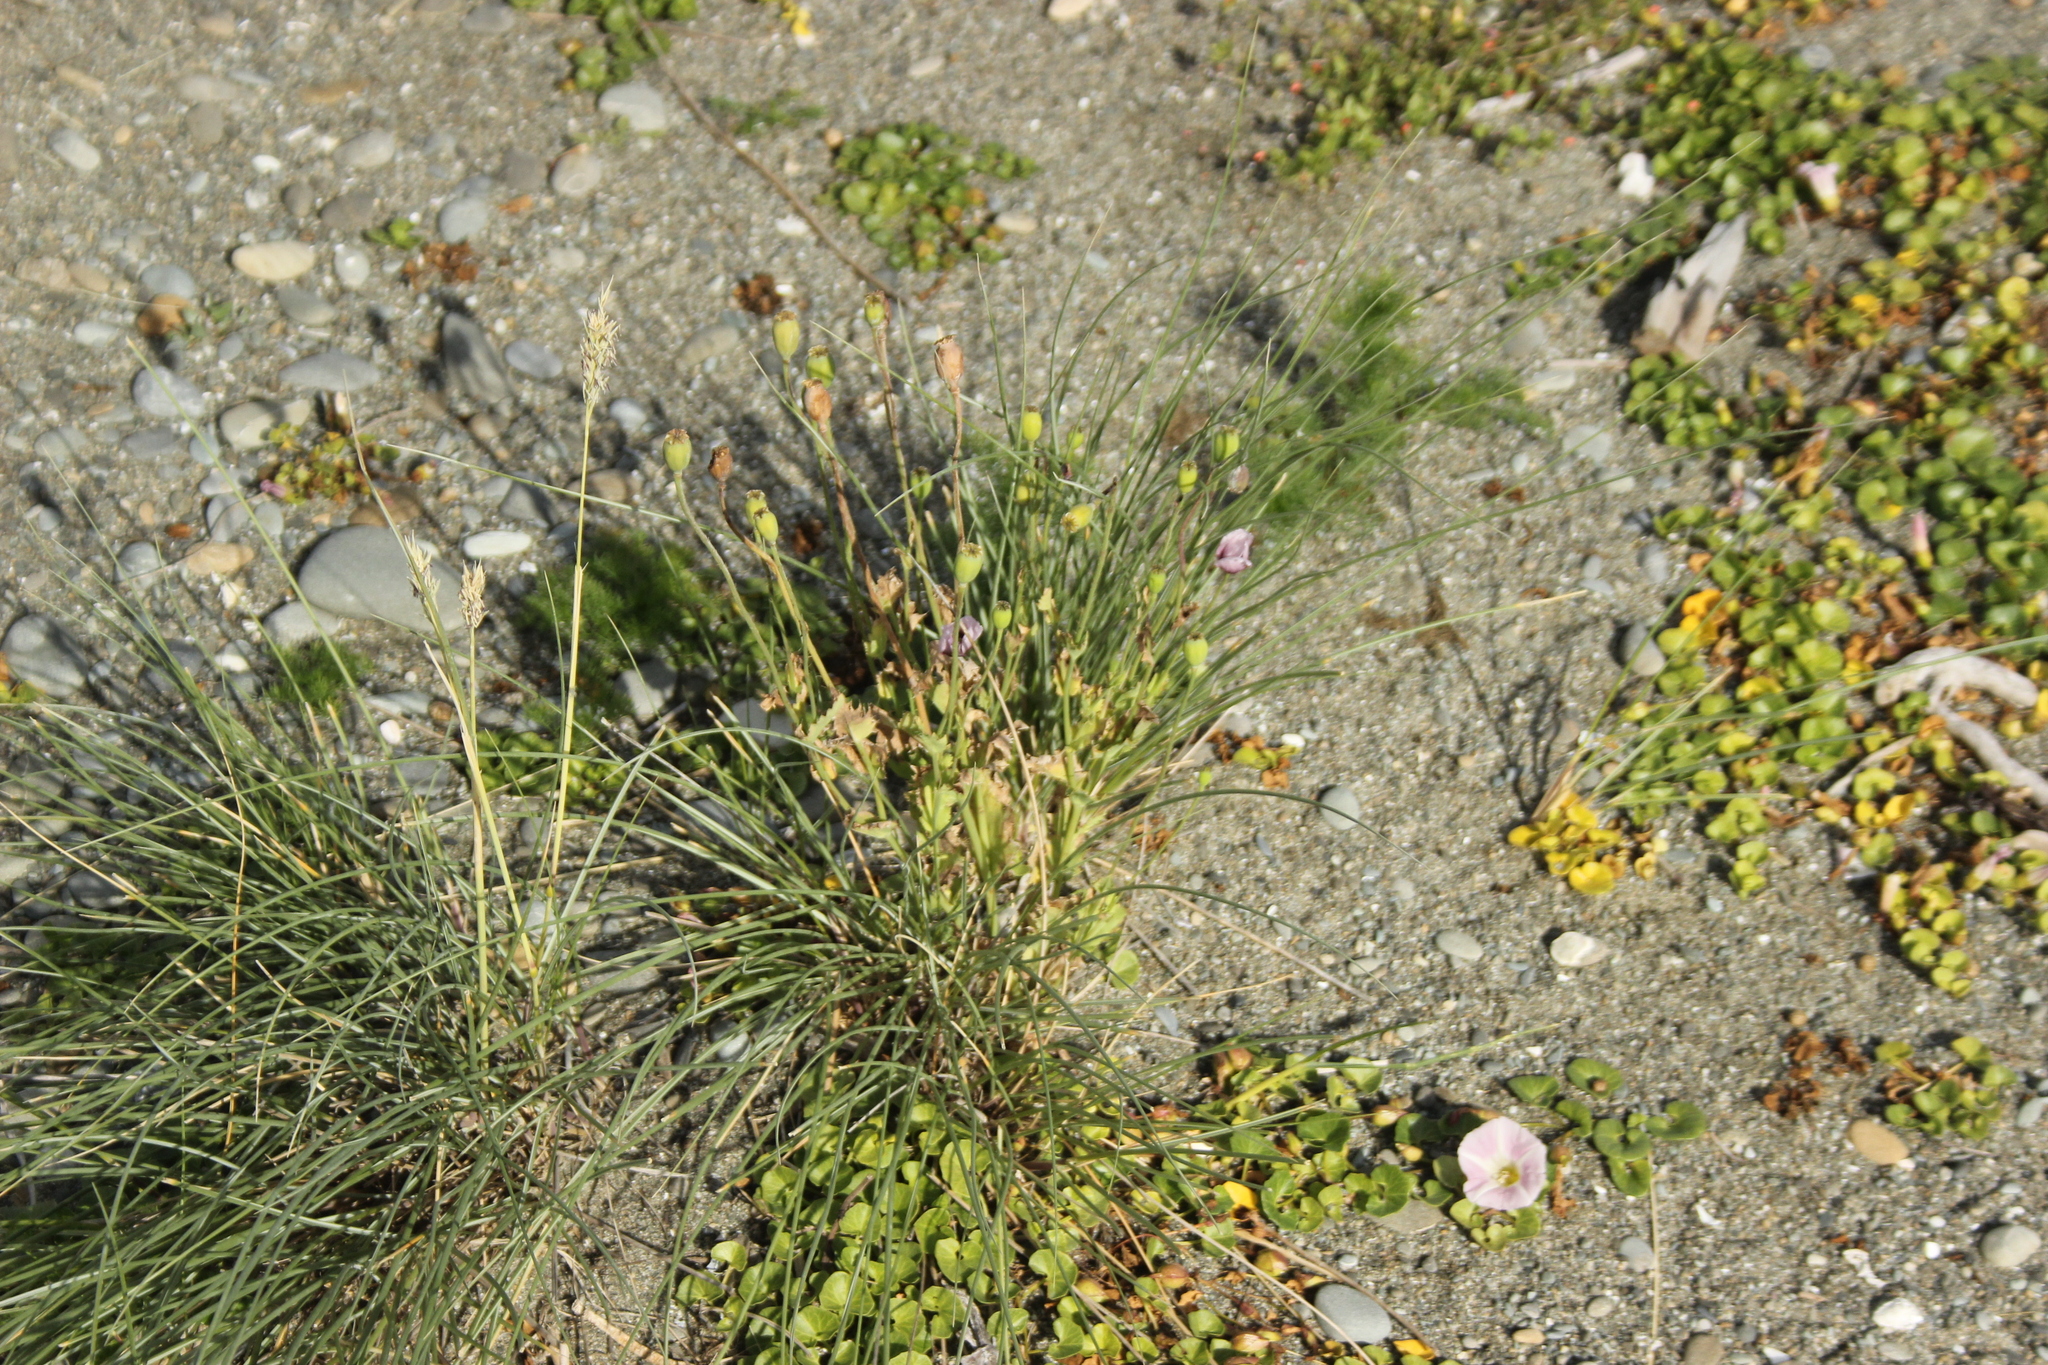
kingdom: Plantae
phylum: Tracheophyta
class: Magnoliopsida
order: Ranunculales
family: Papaveraceae
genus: Papaver
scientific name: Papaver somniferum
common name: Opium poppy
